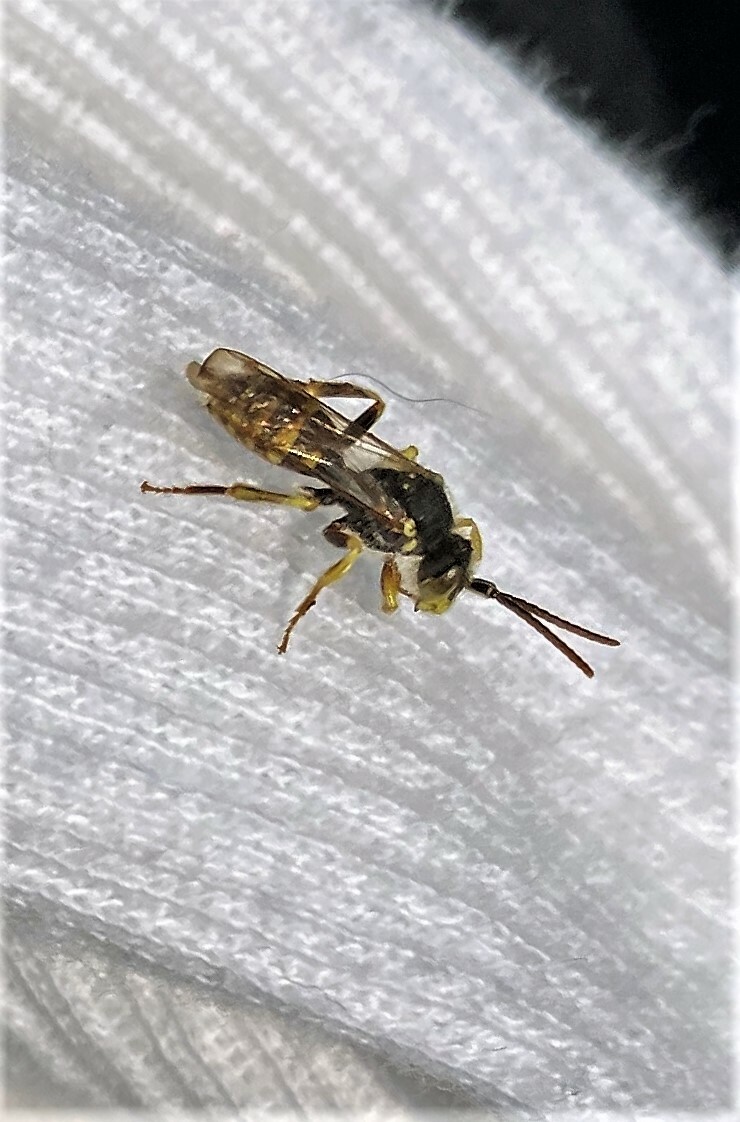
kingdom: Animalia
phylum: Arthropoda
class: Insecta
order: Hymenoptera
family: Apidae
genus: Nomada
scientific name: Nomada luteoloides
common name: Black-and-yellow nomad bee
